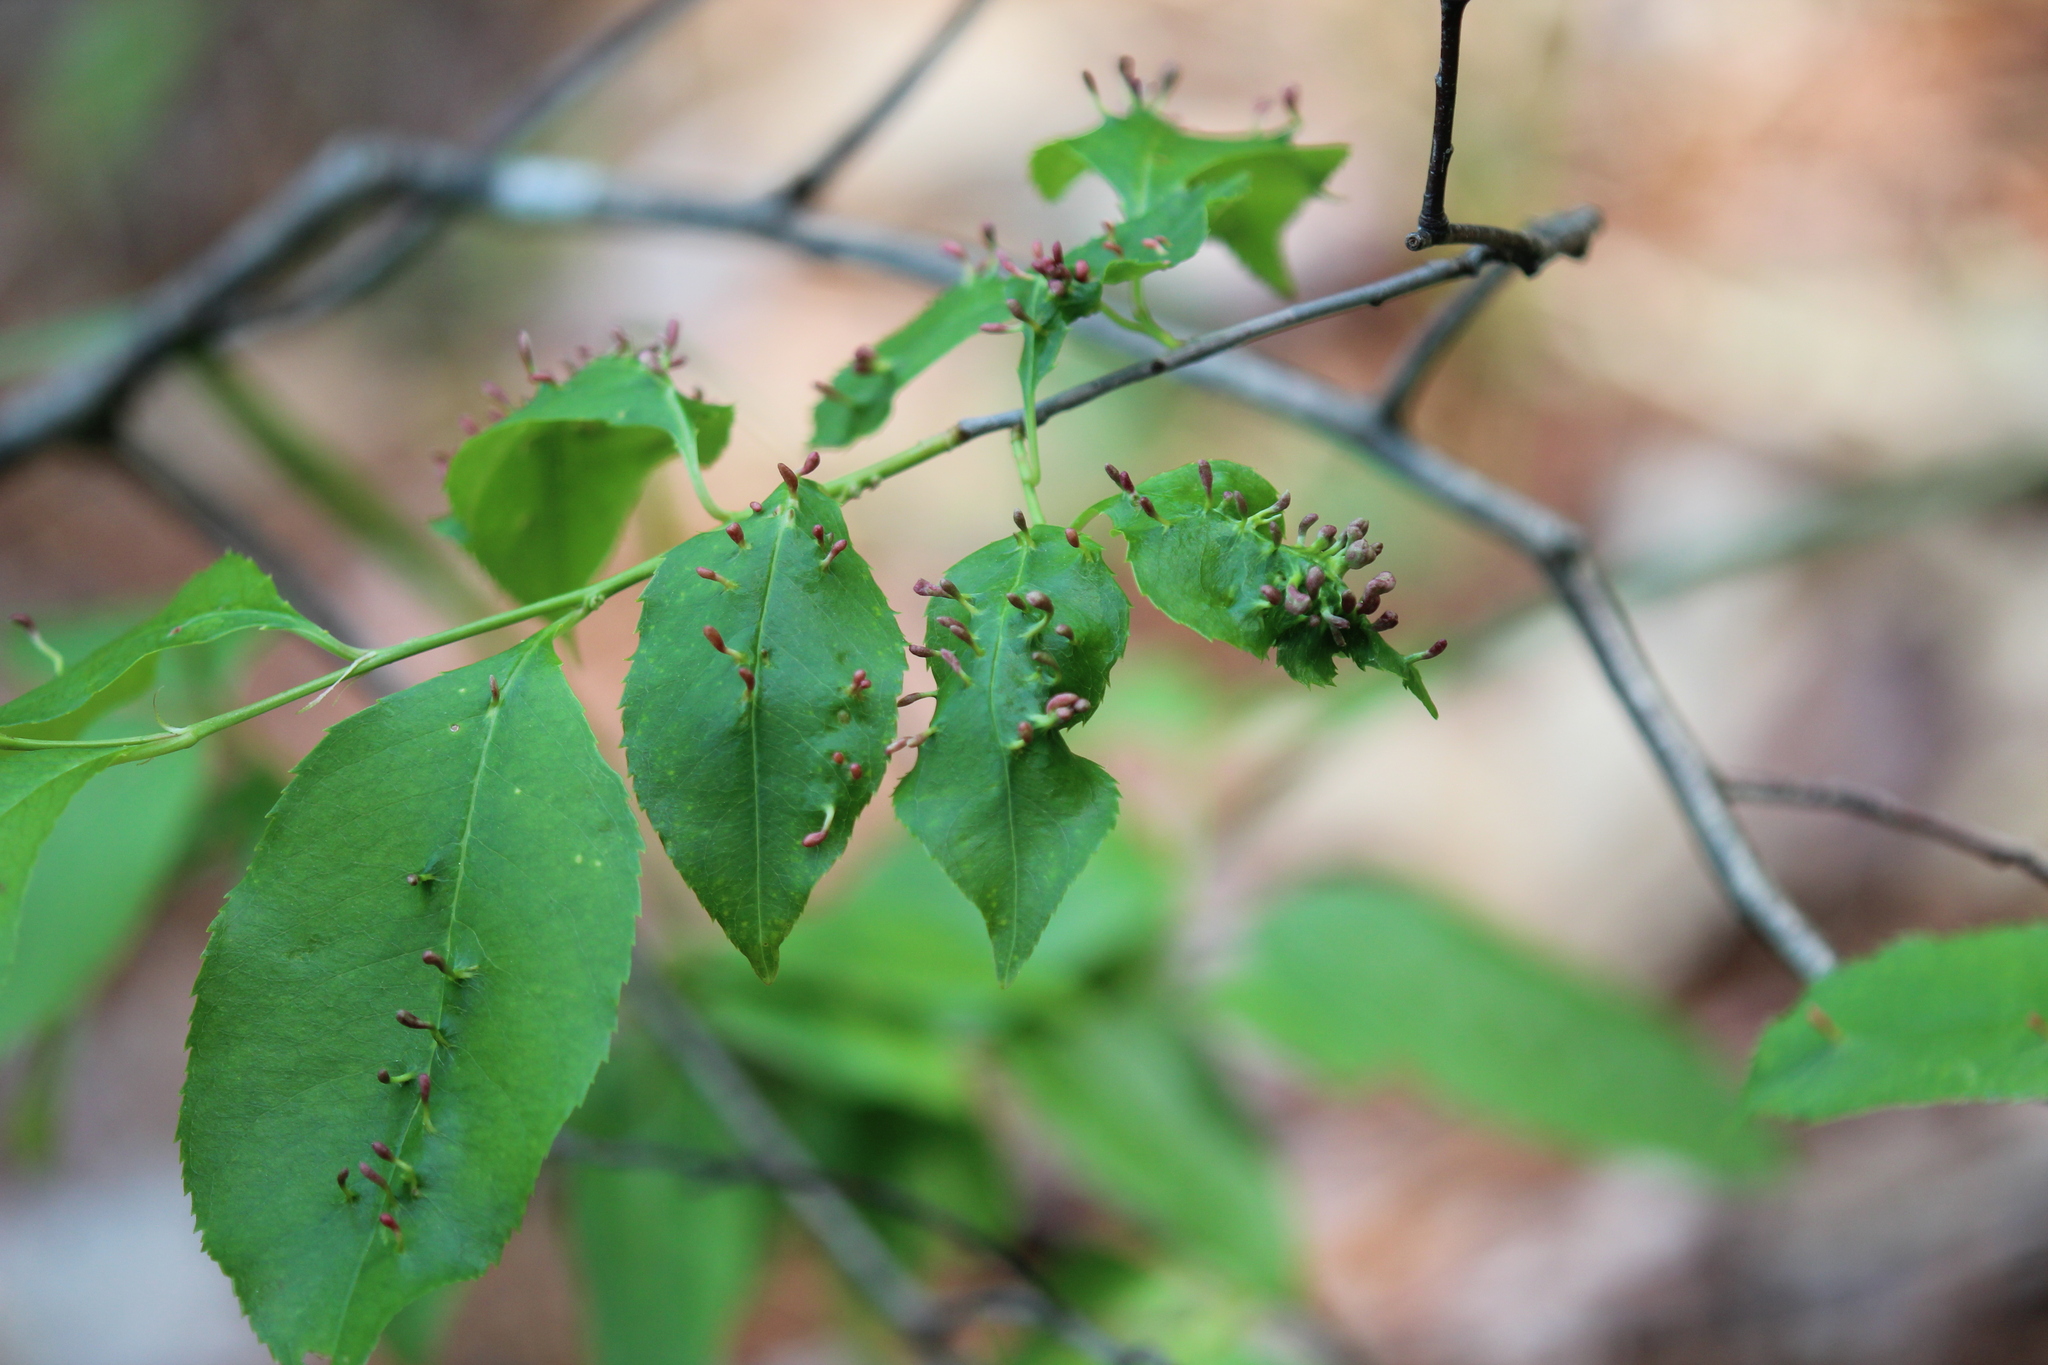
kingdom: Animalia
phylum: Arthropoda
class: Arachnida
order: Trombidiformes
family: Eriophyidae
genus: Eriophyes
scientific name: Eriophyes
